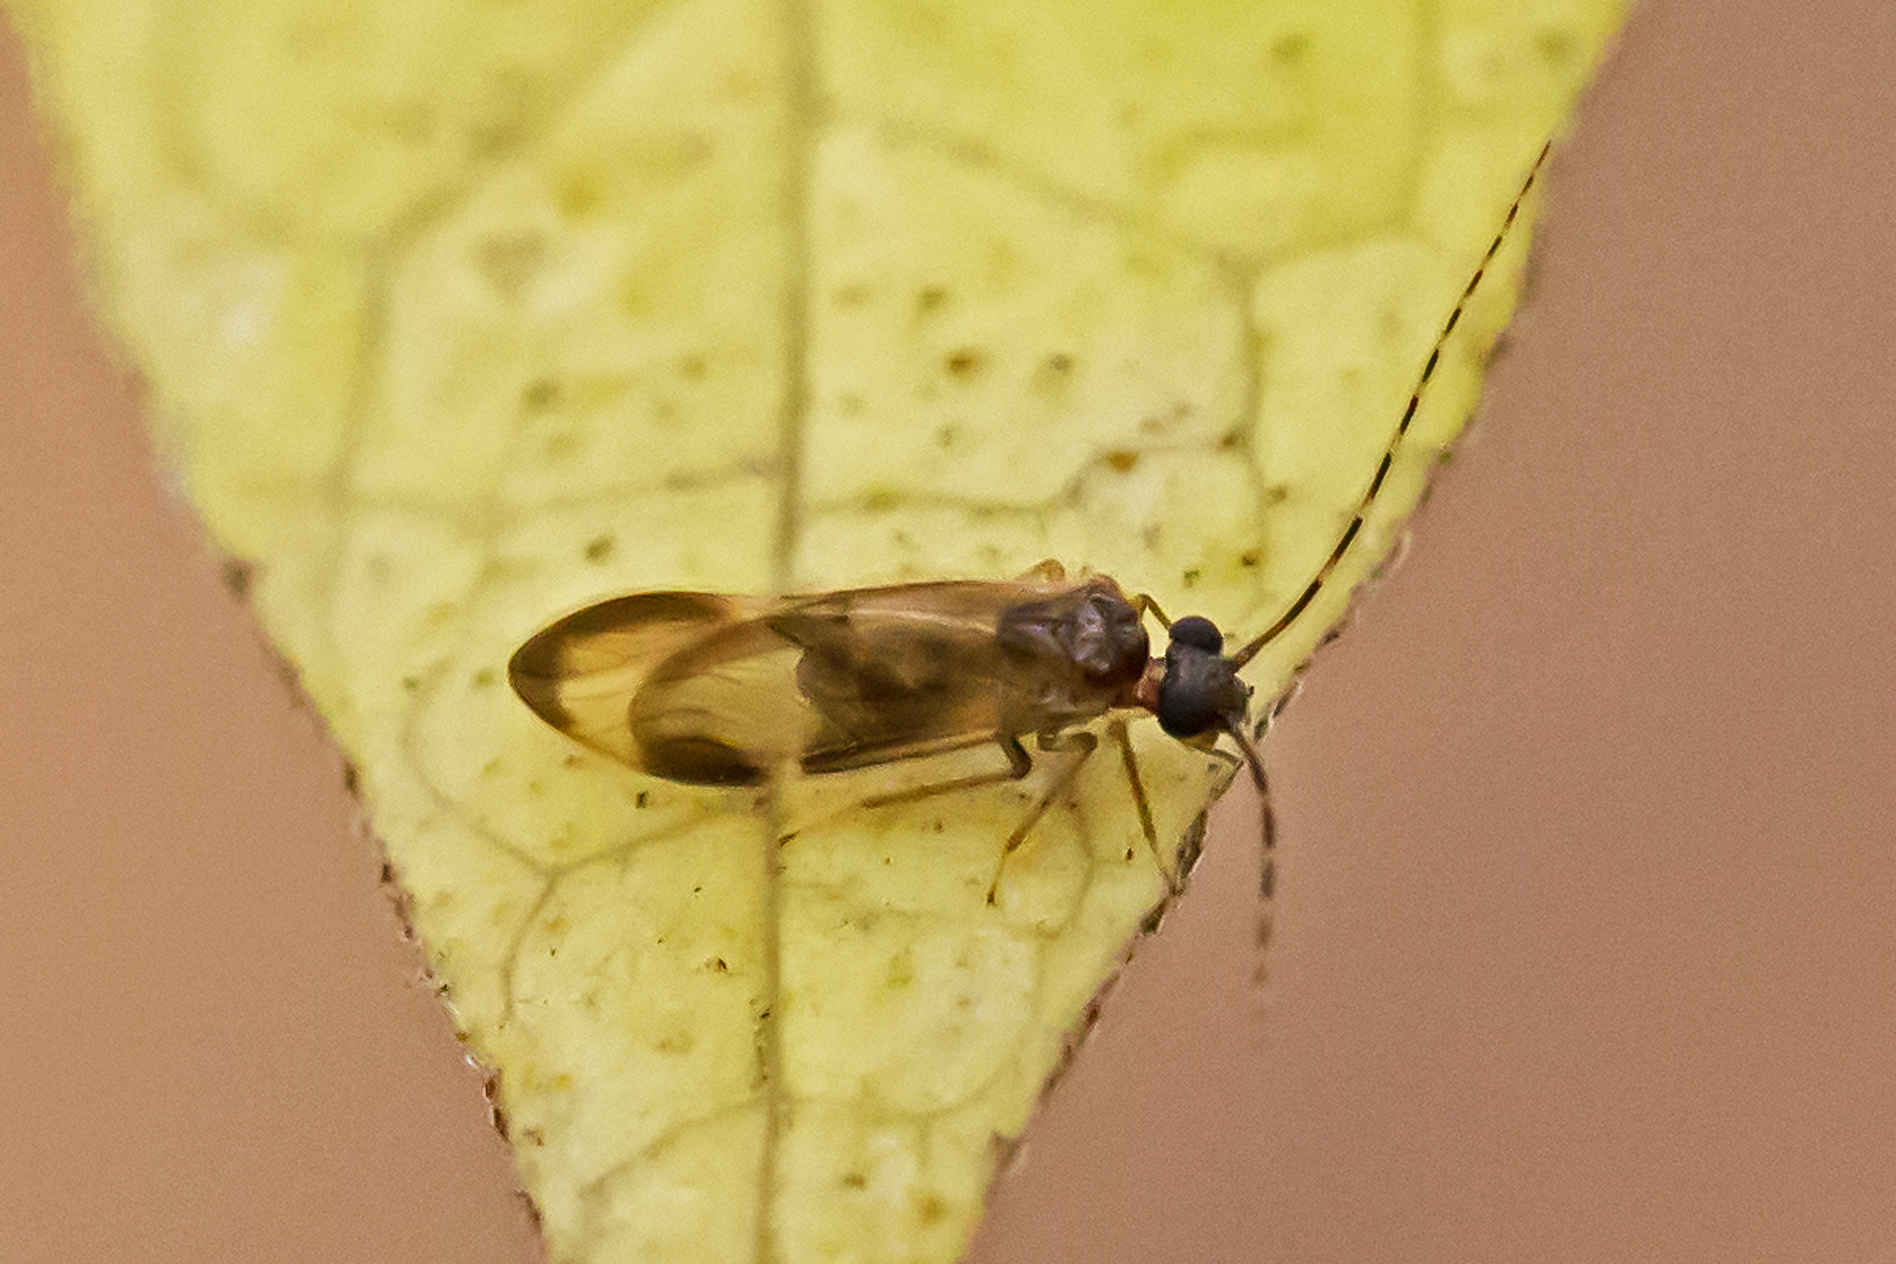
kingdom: Animalia
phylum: Arthropoda
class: Insecta
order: Psocodea
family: Amphipsocidae
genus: Polypsocus
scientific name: Polypsocus corruptus
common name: Corrupt barklouse
